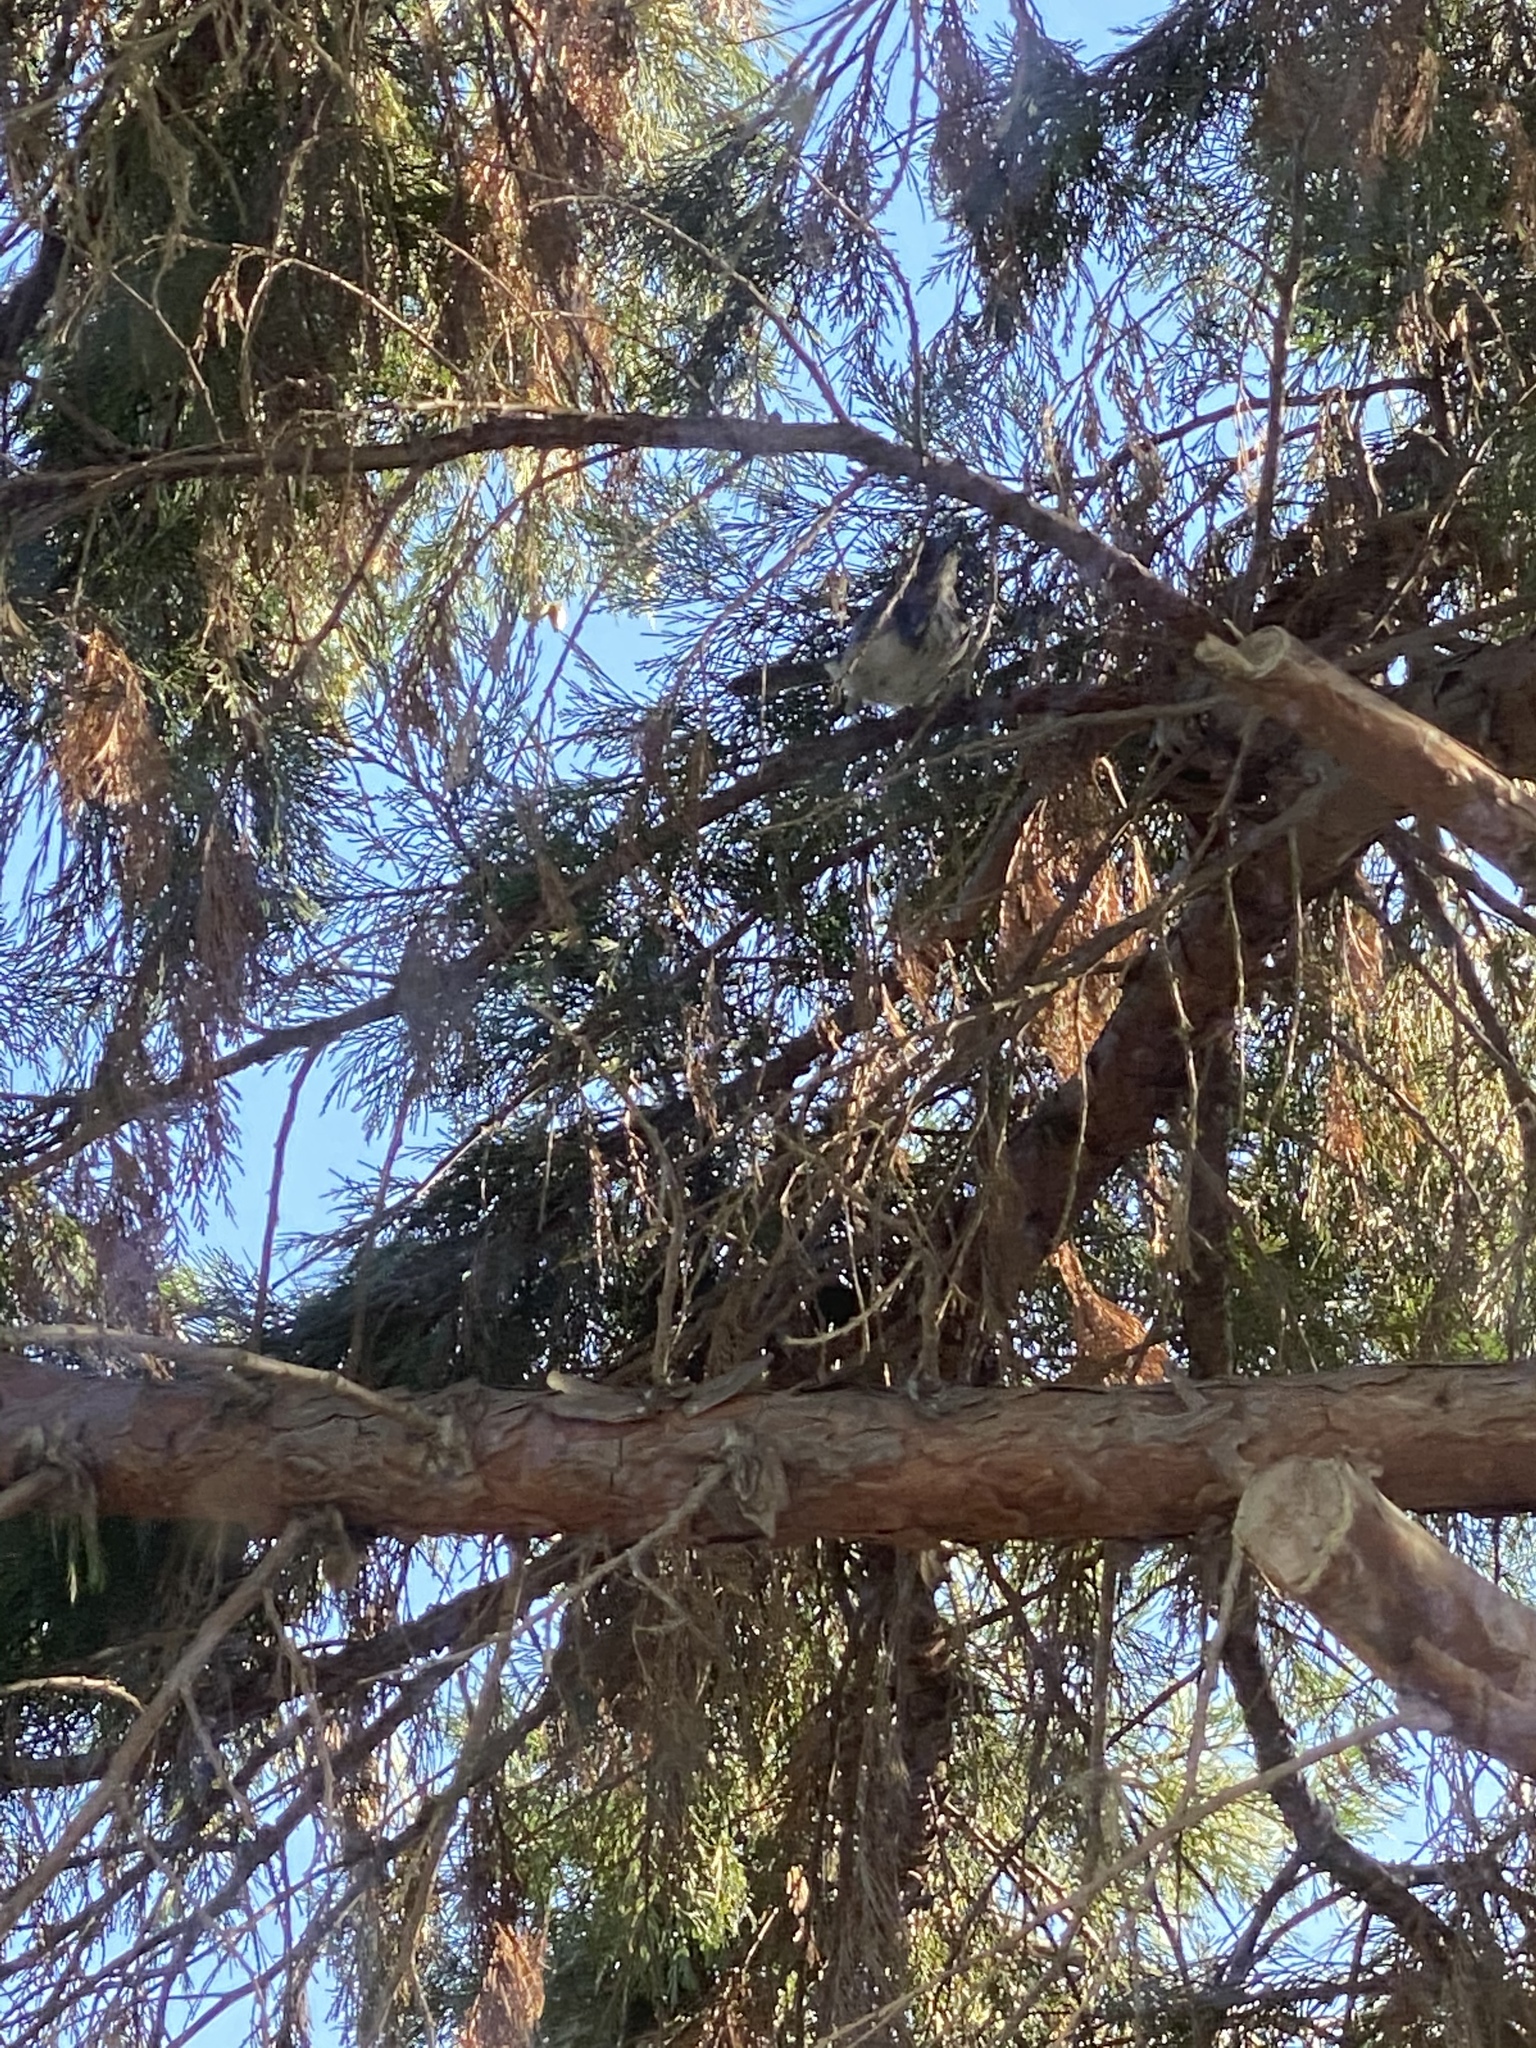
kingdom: Animalia
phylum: Chordata
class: Aves
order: Passeriformes
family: Corvidae
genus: Aphelocoma
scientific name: Aphelocoma californica
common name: California scrub-jay
